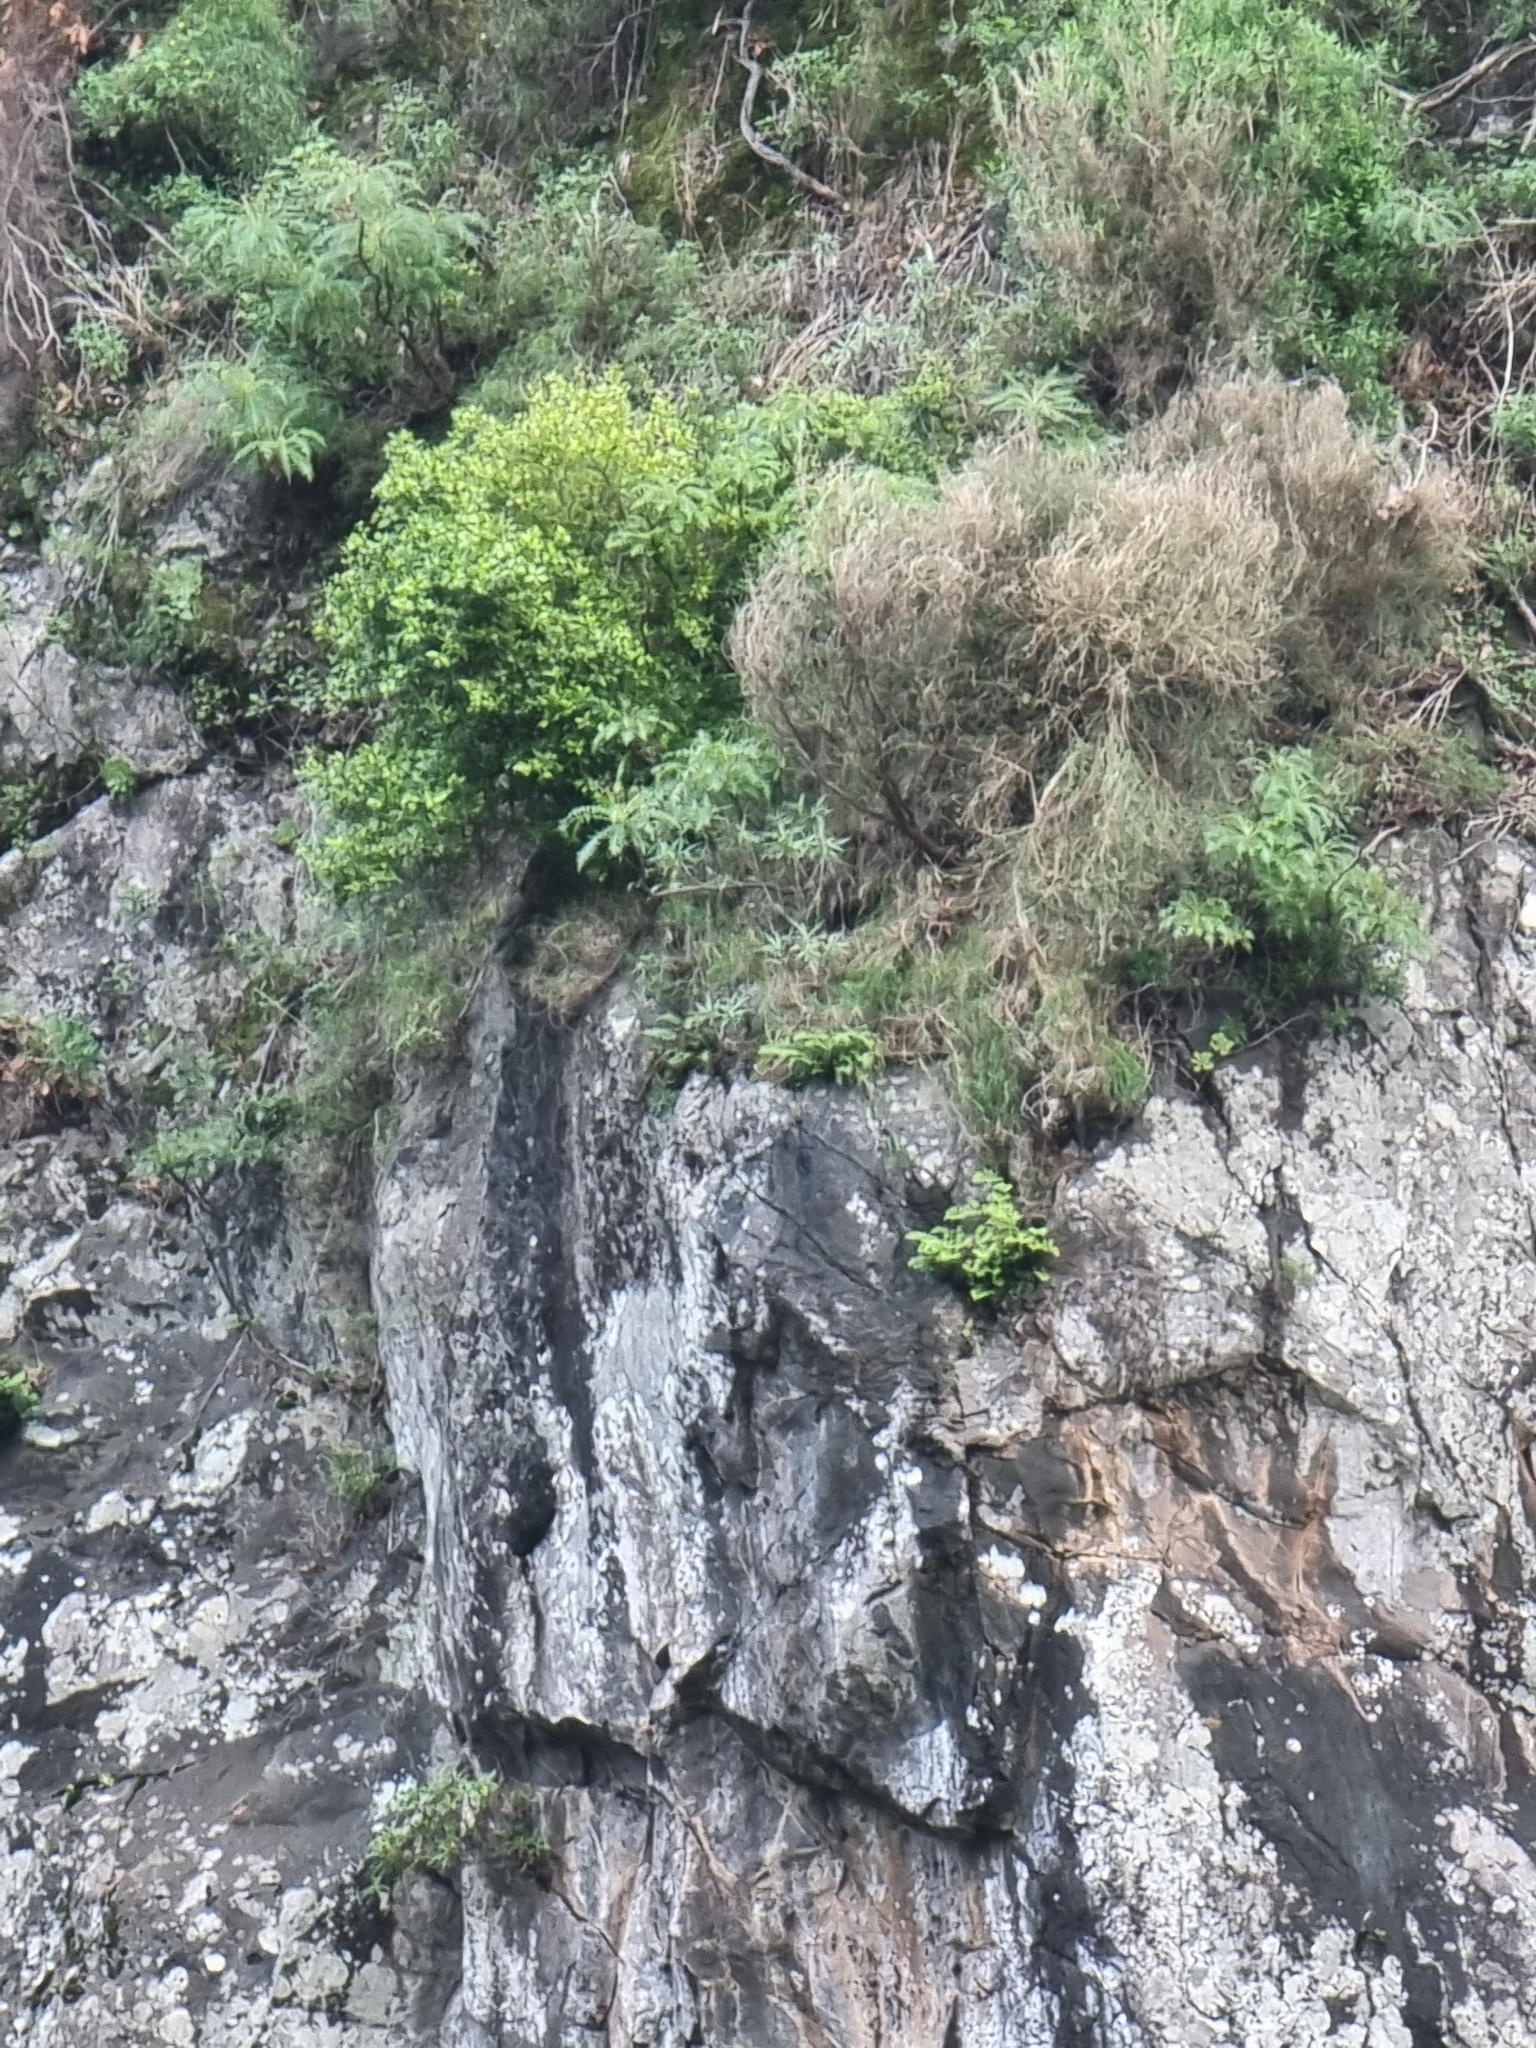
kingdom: Plantae
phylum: Tracheophyta
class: Magnoliopsida
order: Asterales
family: Asteraceae
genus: Sonchus
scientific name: Sonchus pinnatus
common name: Wing-leaved sow-thistle
